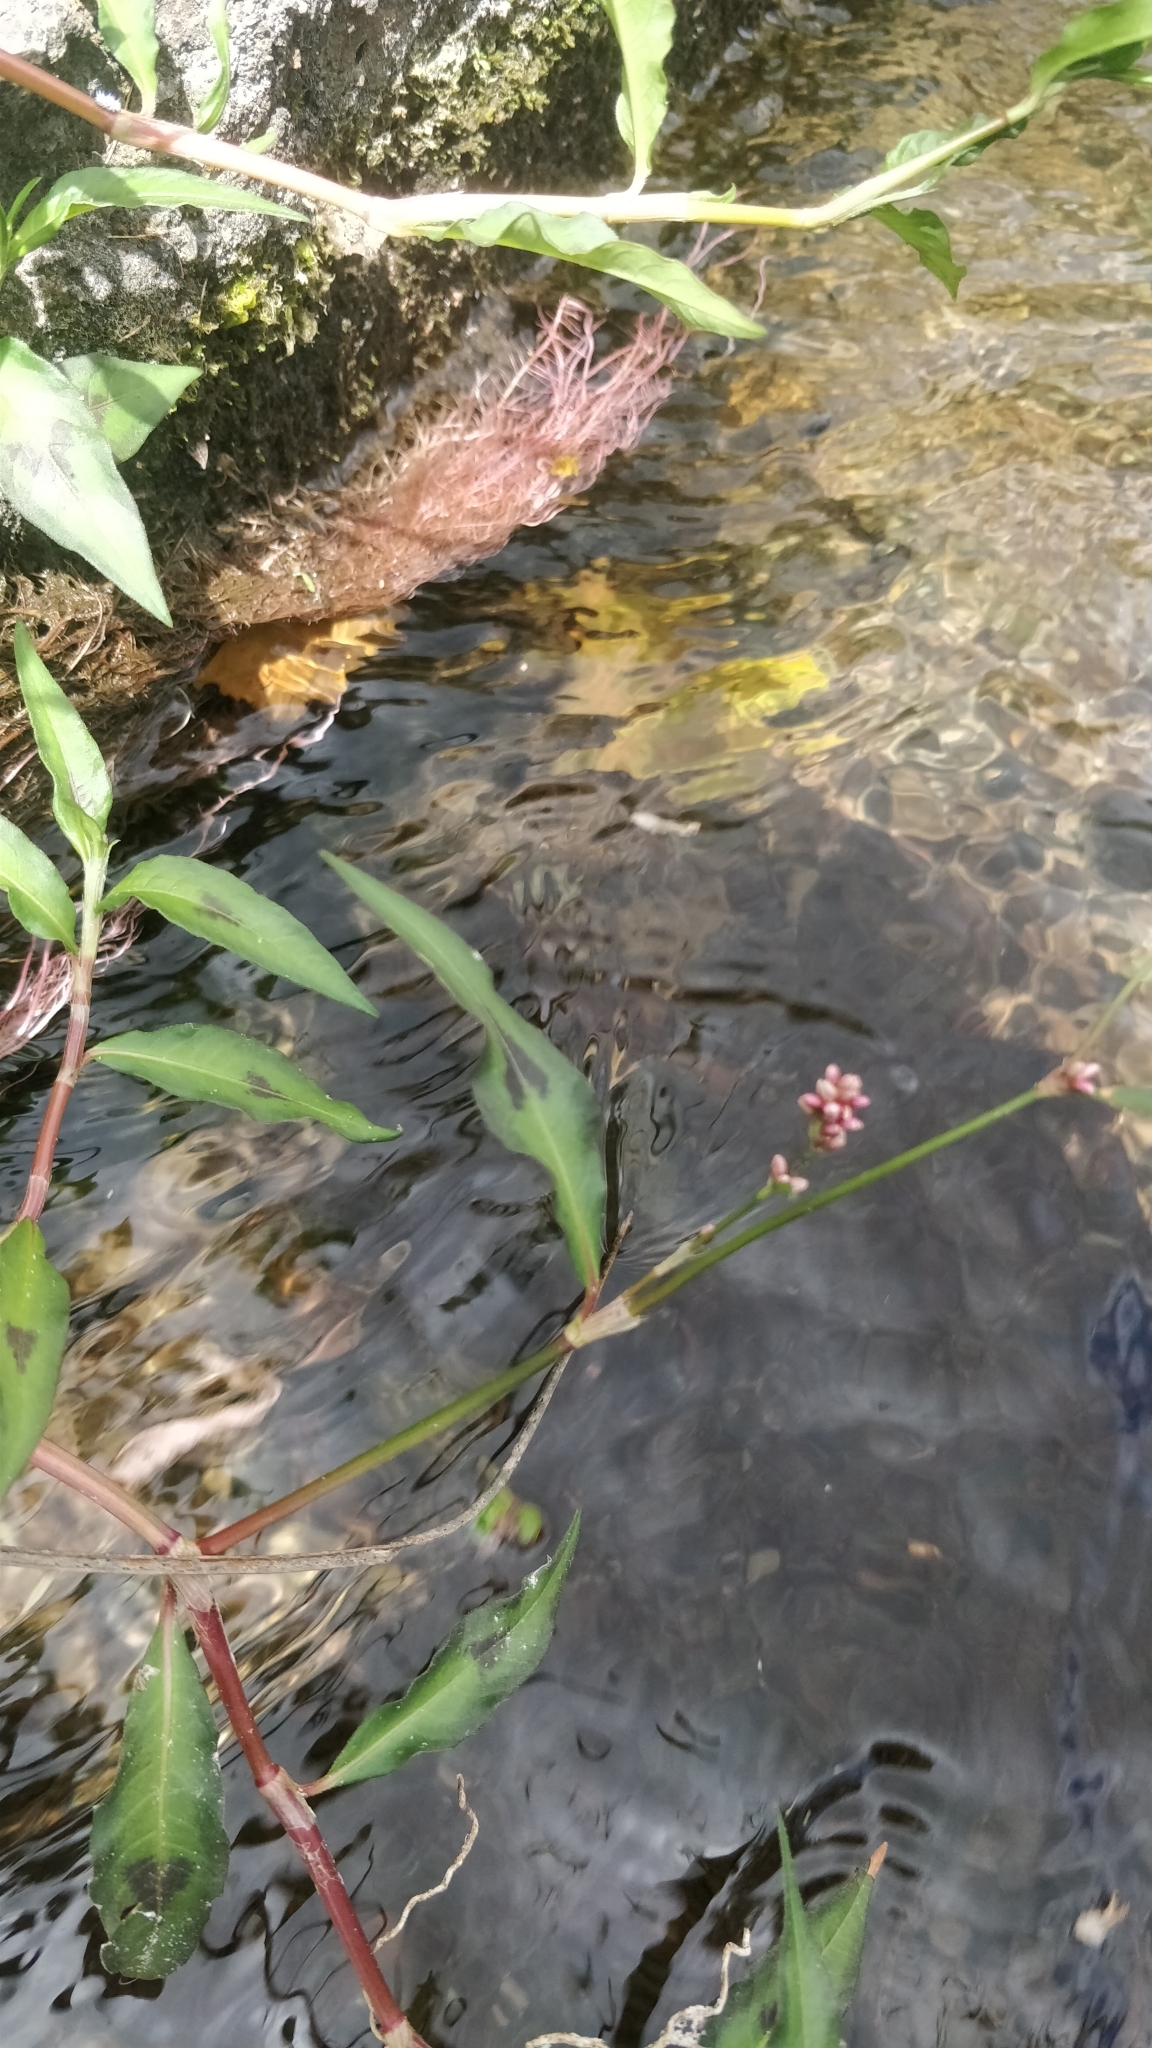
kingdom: Plantae
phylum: Tracheophyta
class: Magnoliopsida
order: Caryophyllales
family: Polygonaceae
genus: Persicaria
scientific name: Persicaria maculosa
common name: Redshank
